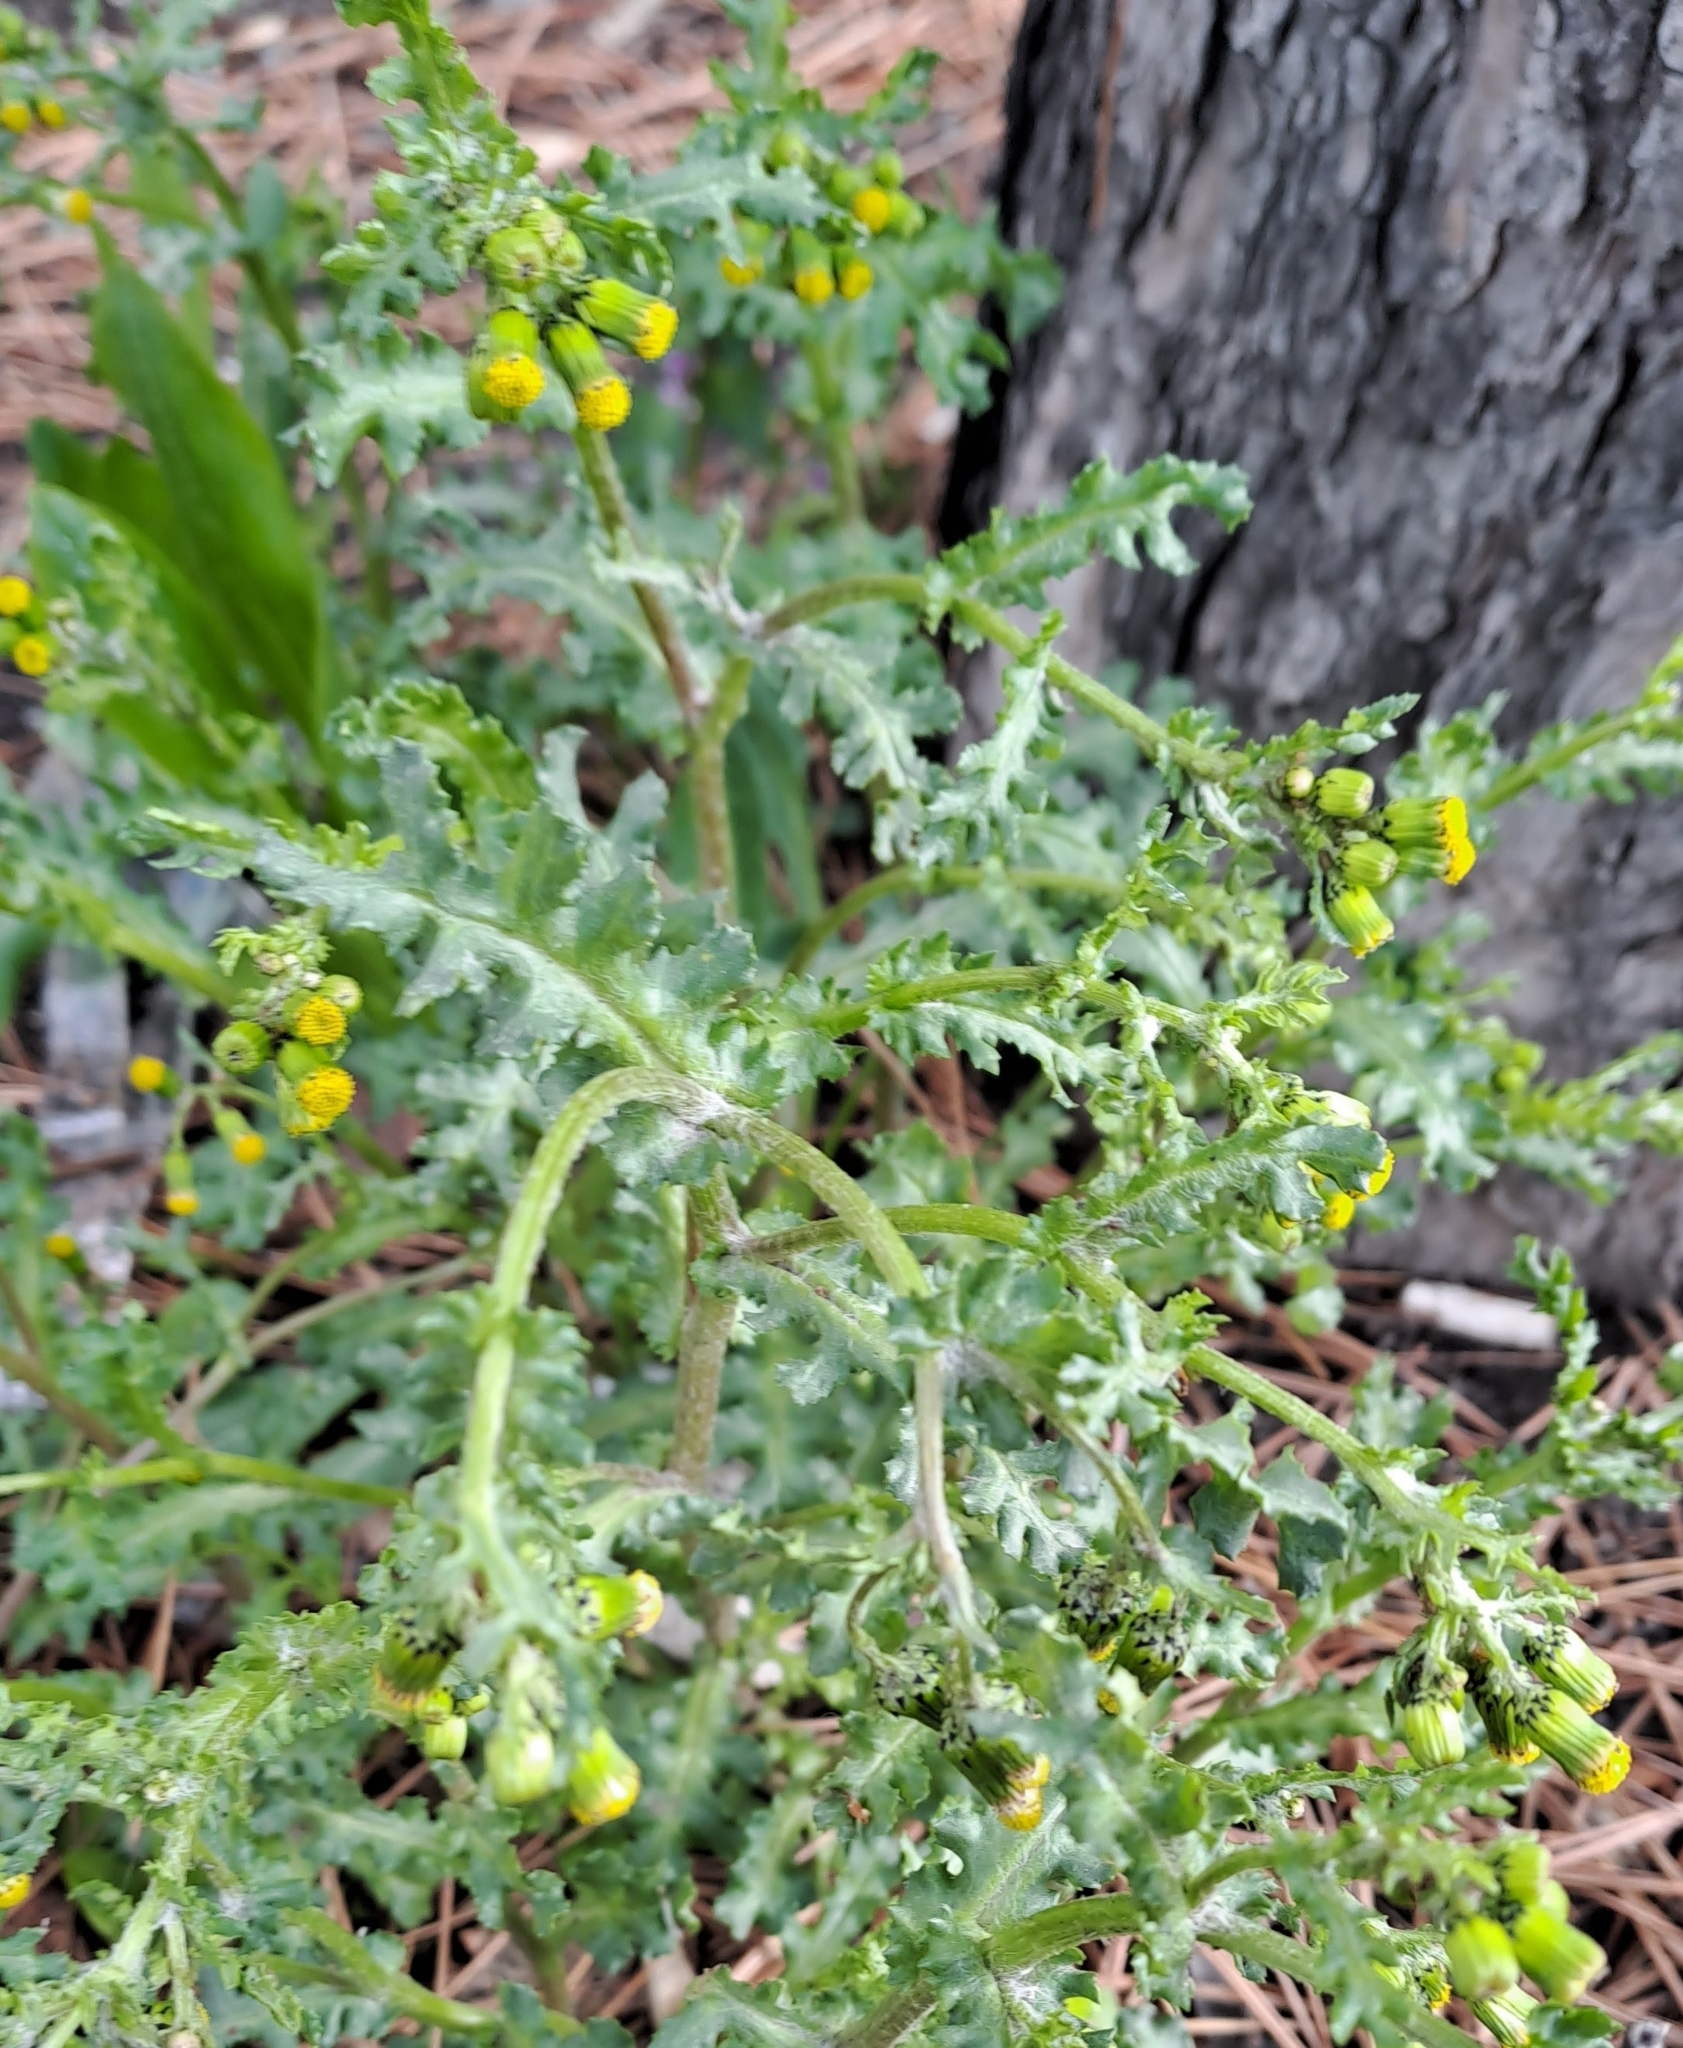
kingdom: Plantae
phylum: Tracheophyta
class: Magnoliopsida
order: Asterales
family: Asteraceae
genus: Senecio
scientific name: Senecio vulgaris
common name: Old-man-in-the-spring
